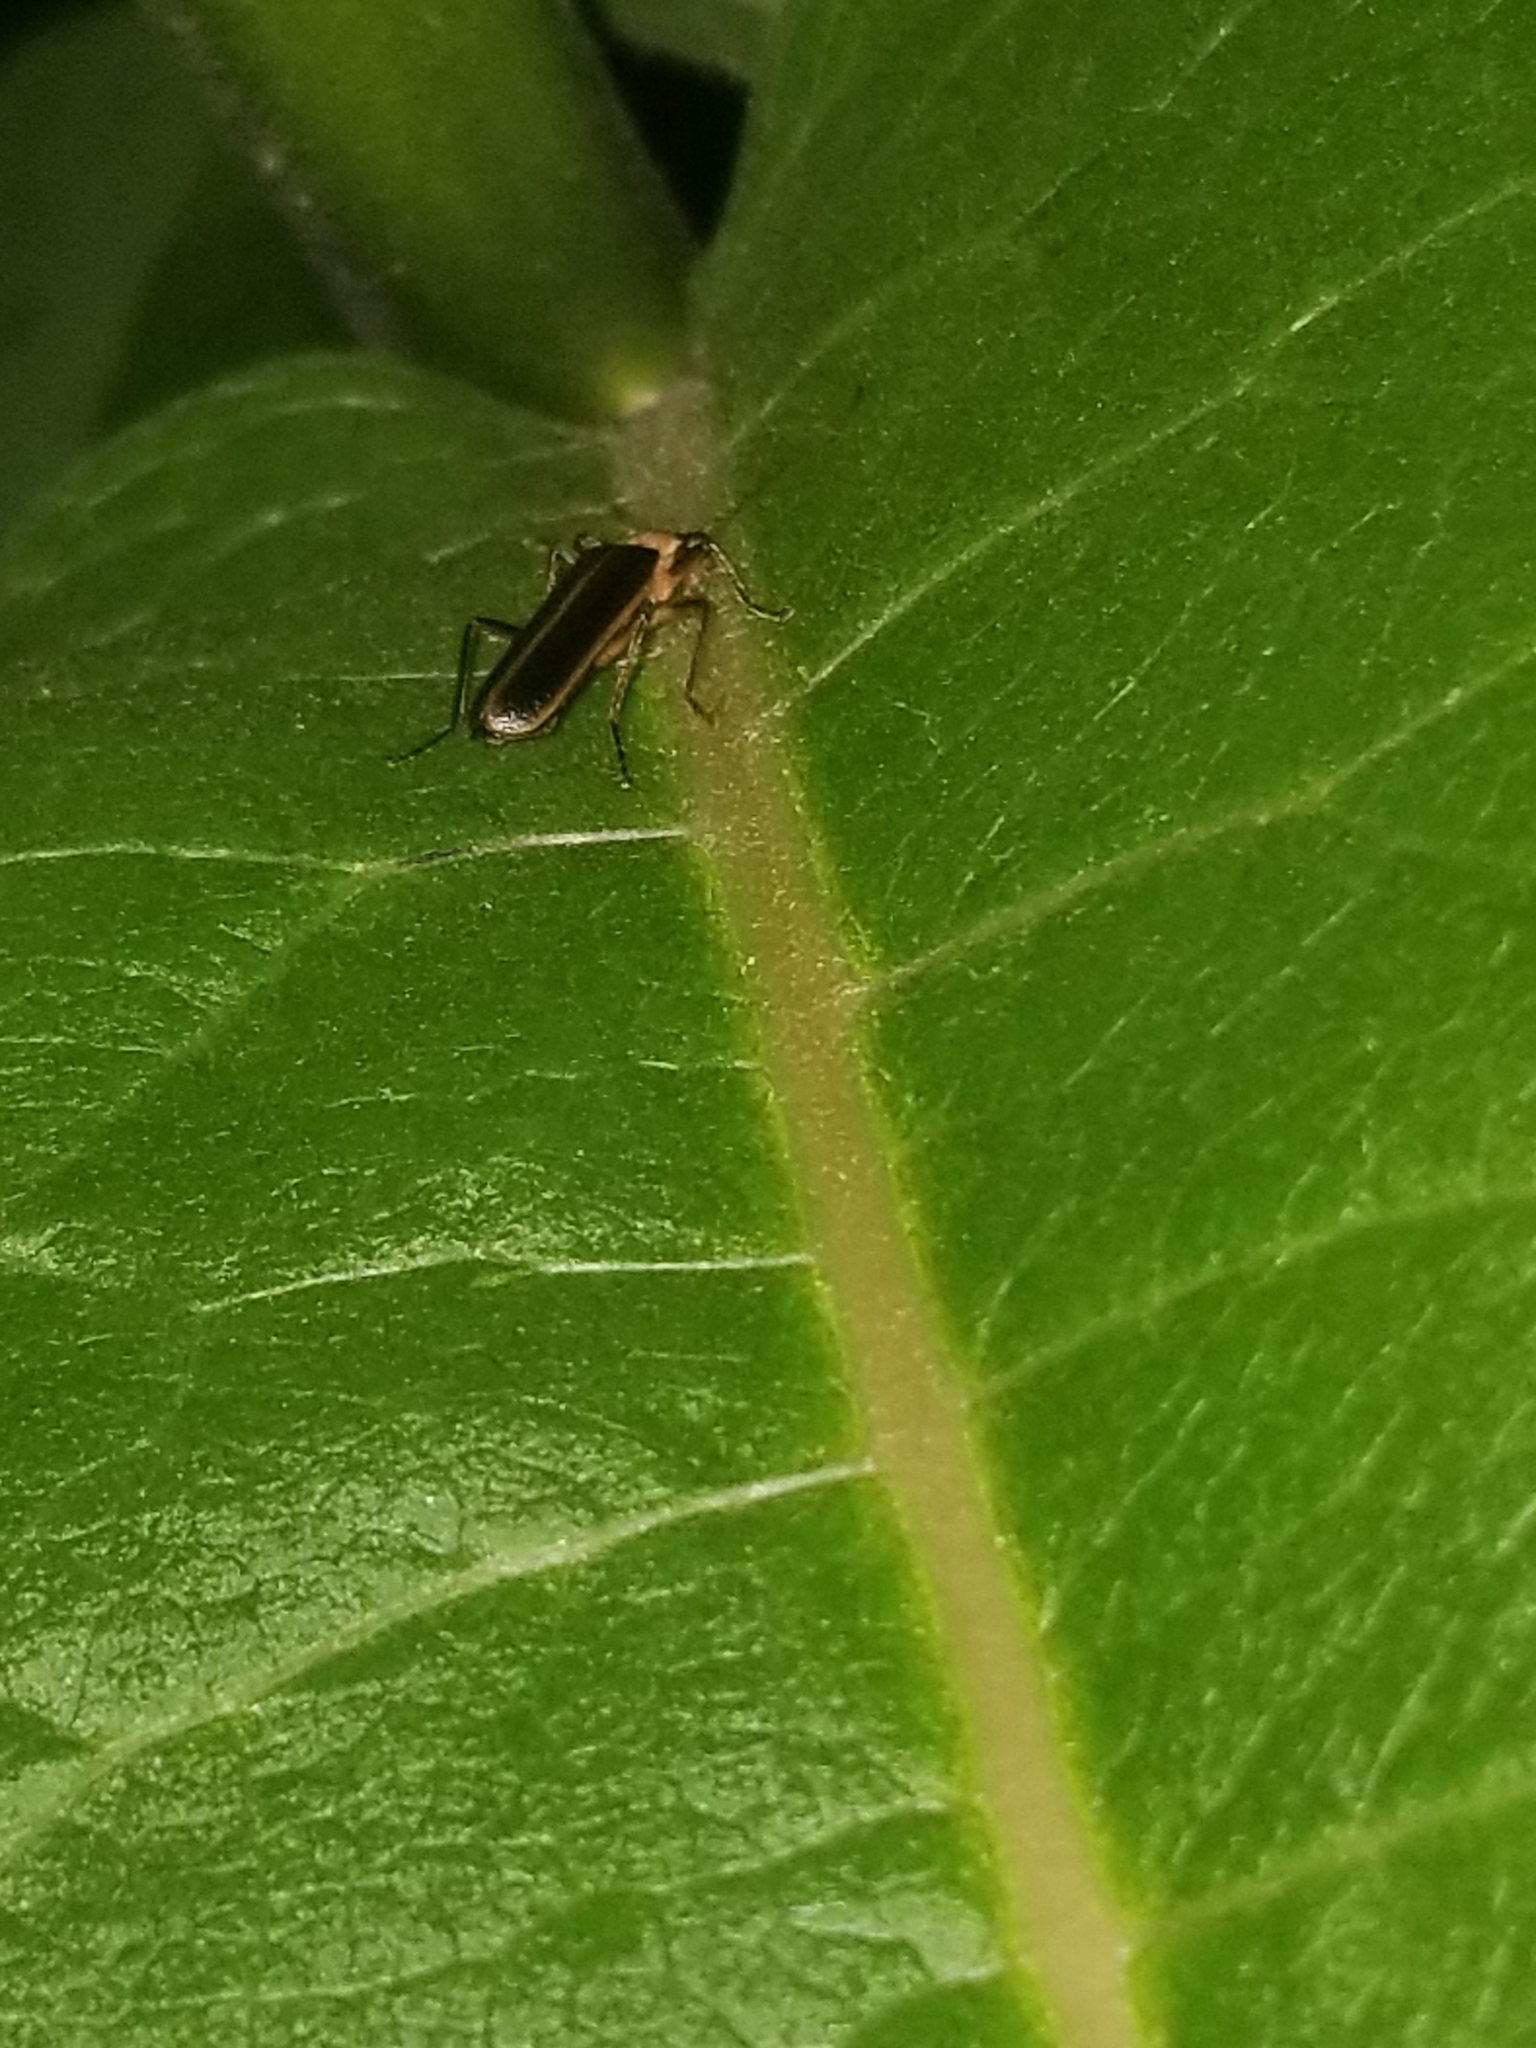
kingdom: Animalia
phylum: Arthropoda
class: Insecta
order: Coleoptera
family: Cantharidae
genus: Podabrus
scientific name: Podabrus flavicollis
